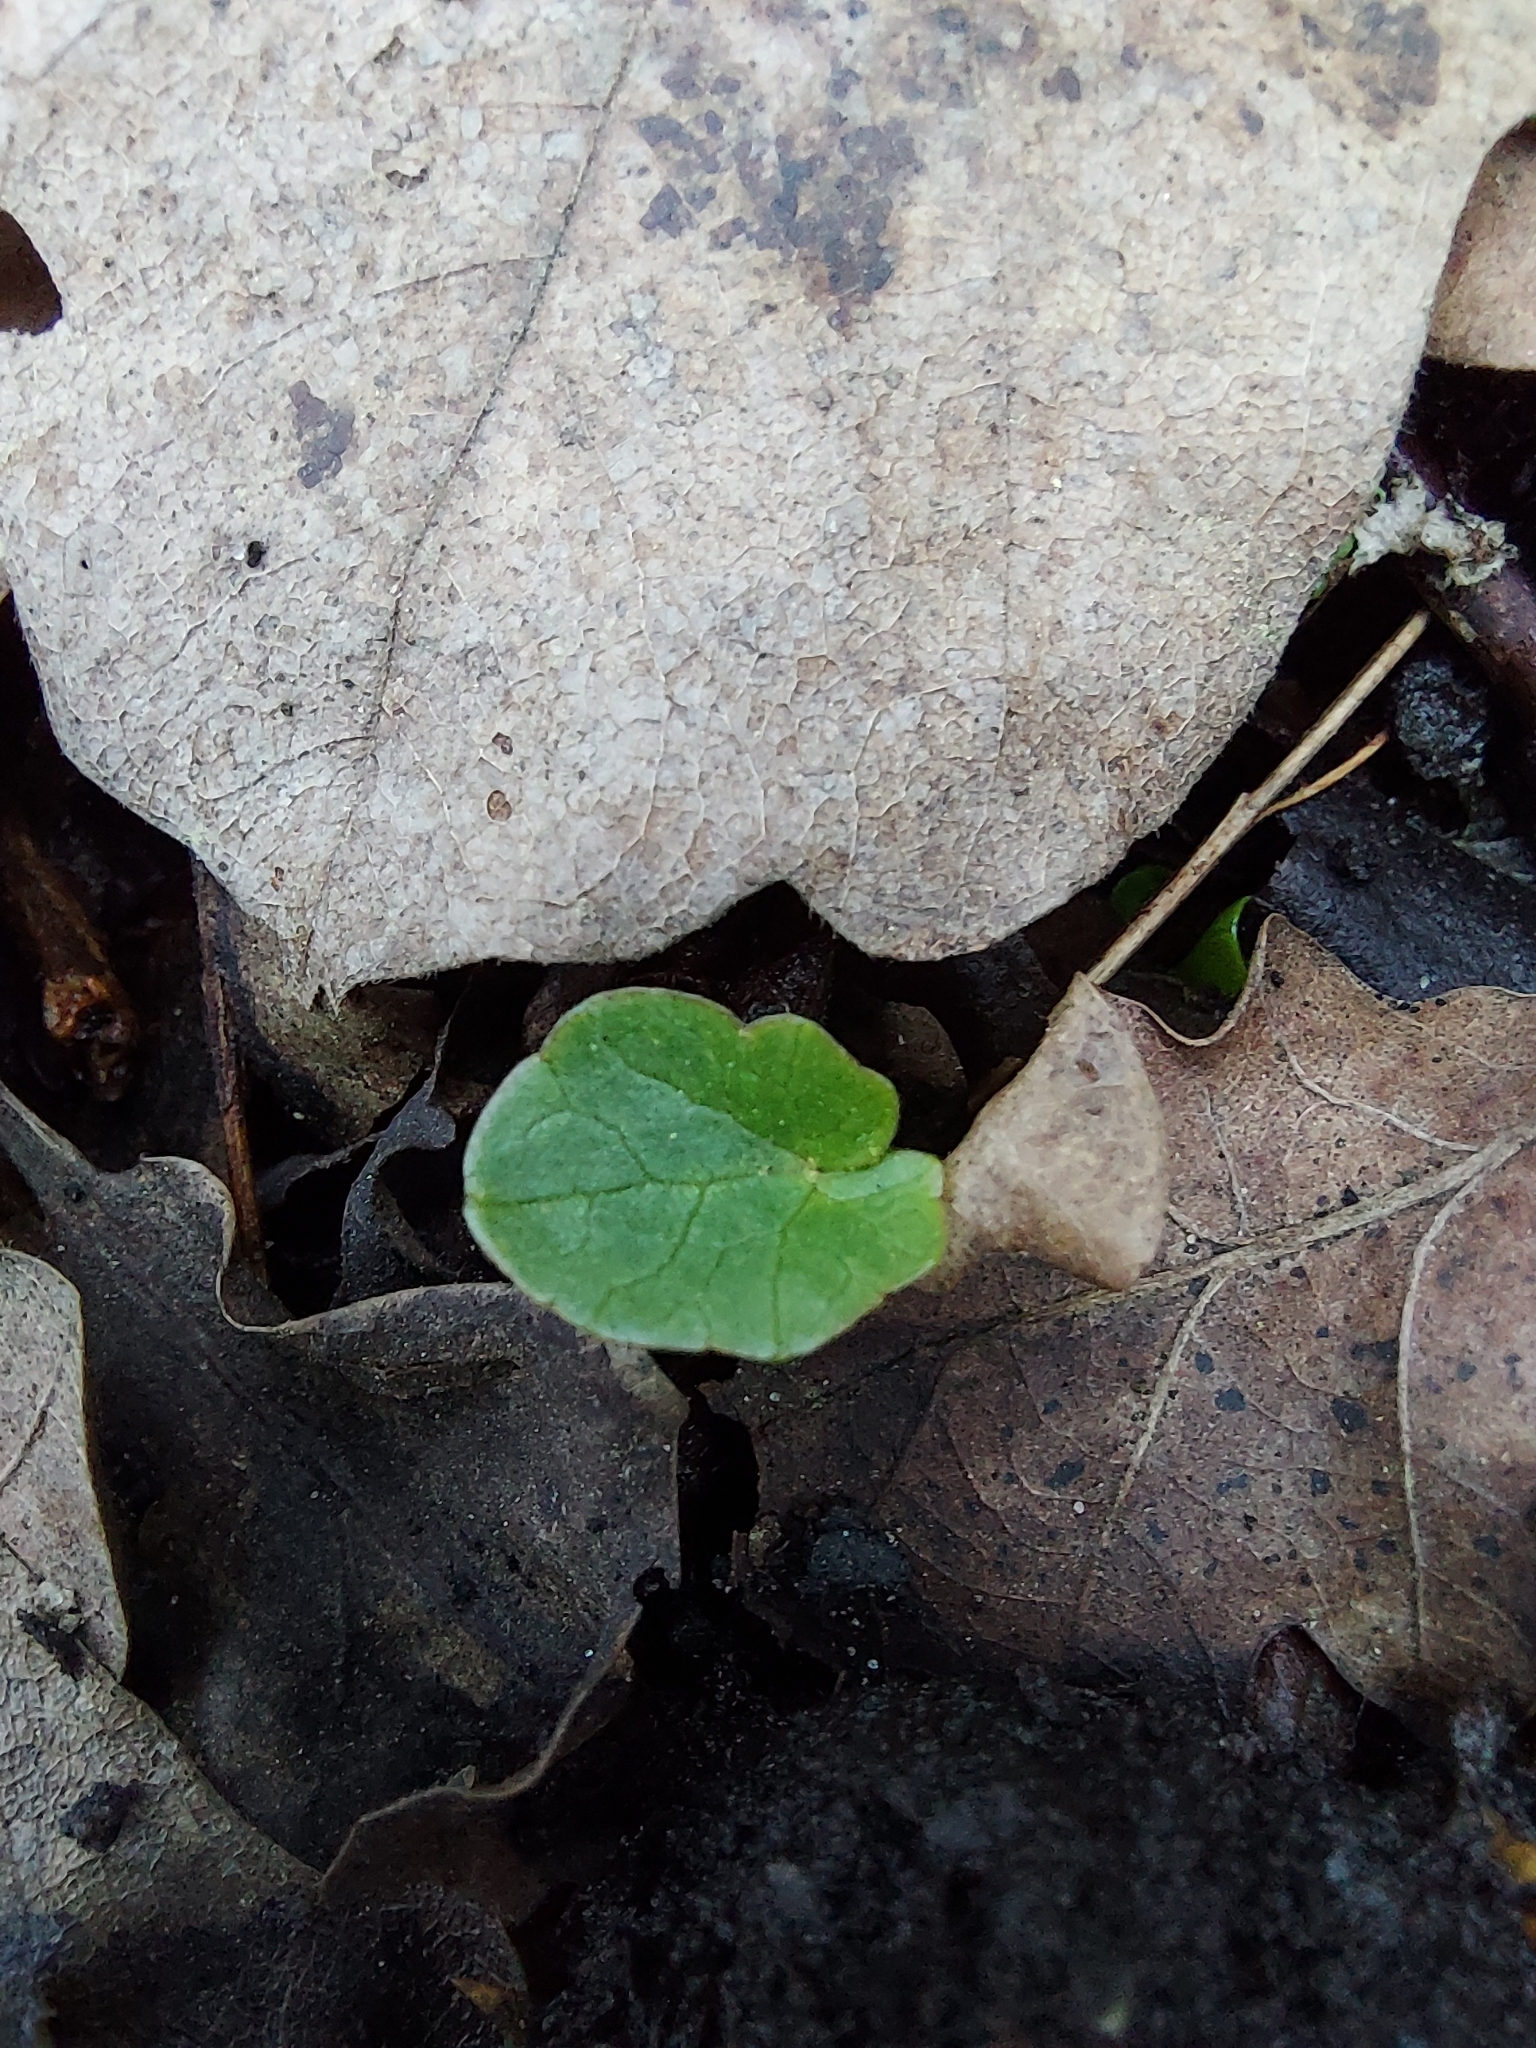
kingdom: Plantae
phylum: Tracheophyta
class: Magnoliopsida
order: Ranunculales
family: Ranunculaceae
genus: Ficaria
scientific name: Ficaria verna
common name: Lesser celandine
